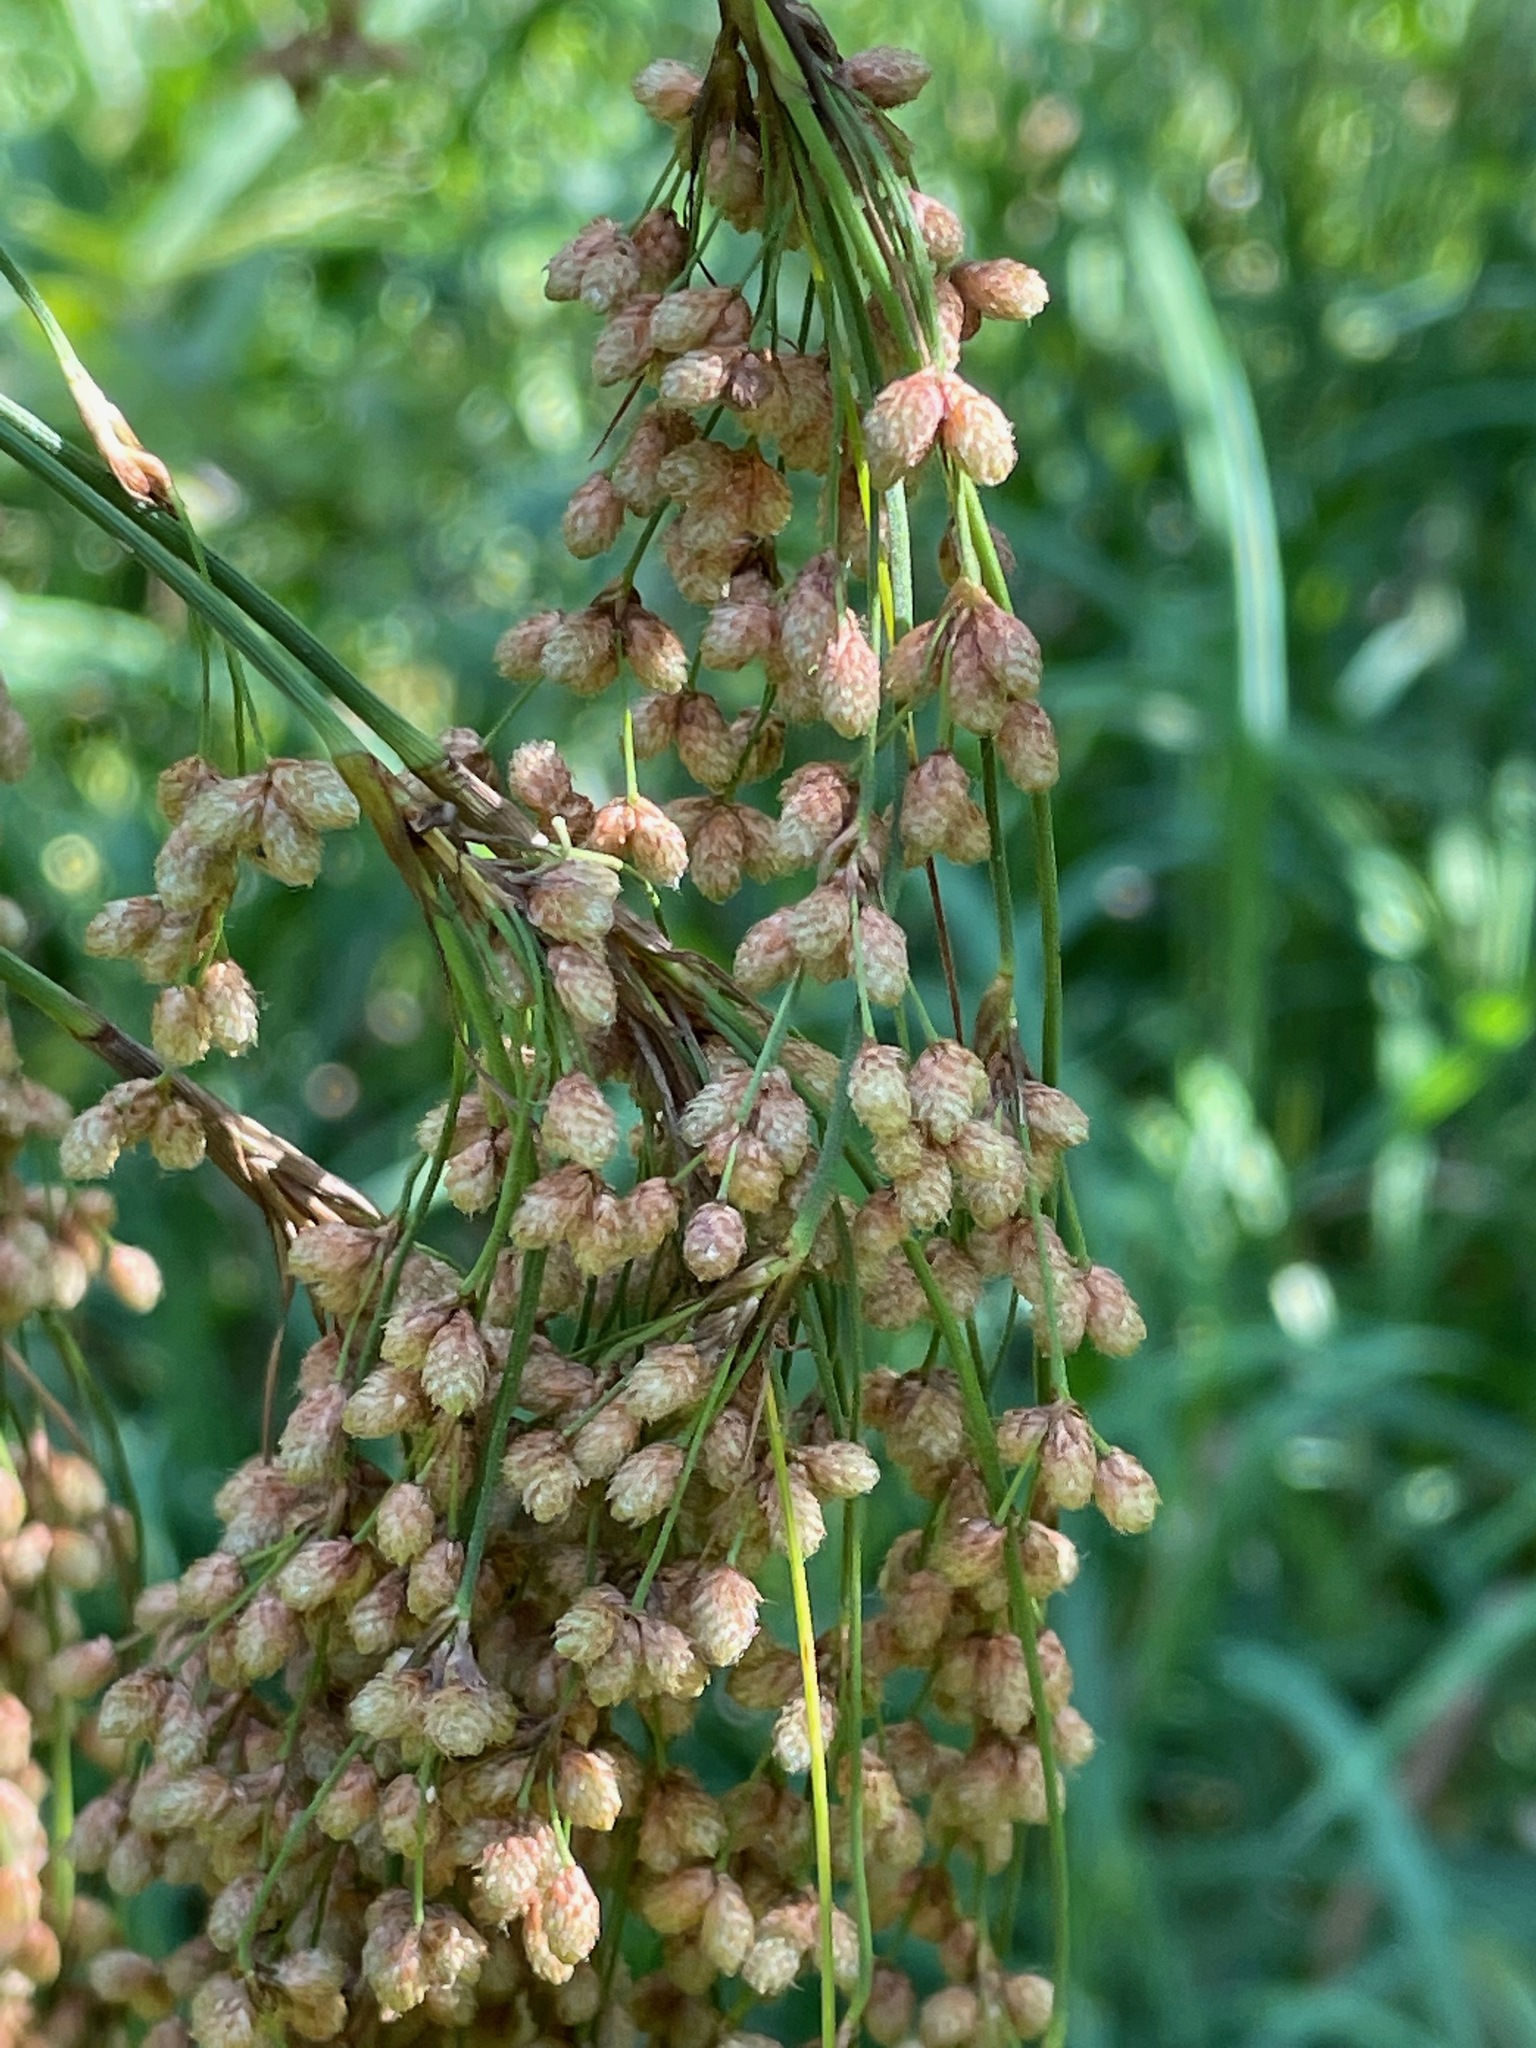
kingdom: Plantae
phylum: Tracheophyta
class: Liliopsida
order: Poales
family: Cyperaceae
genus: Scirpus
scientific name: Scirpus cyperinus
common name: Black-sheathed bulrush
